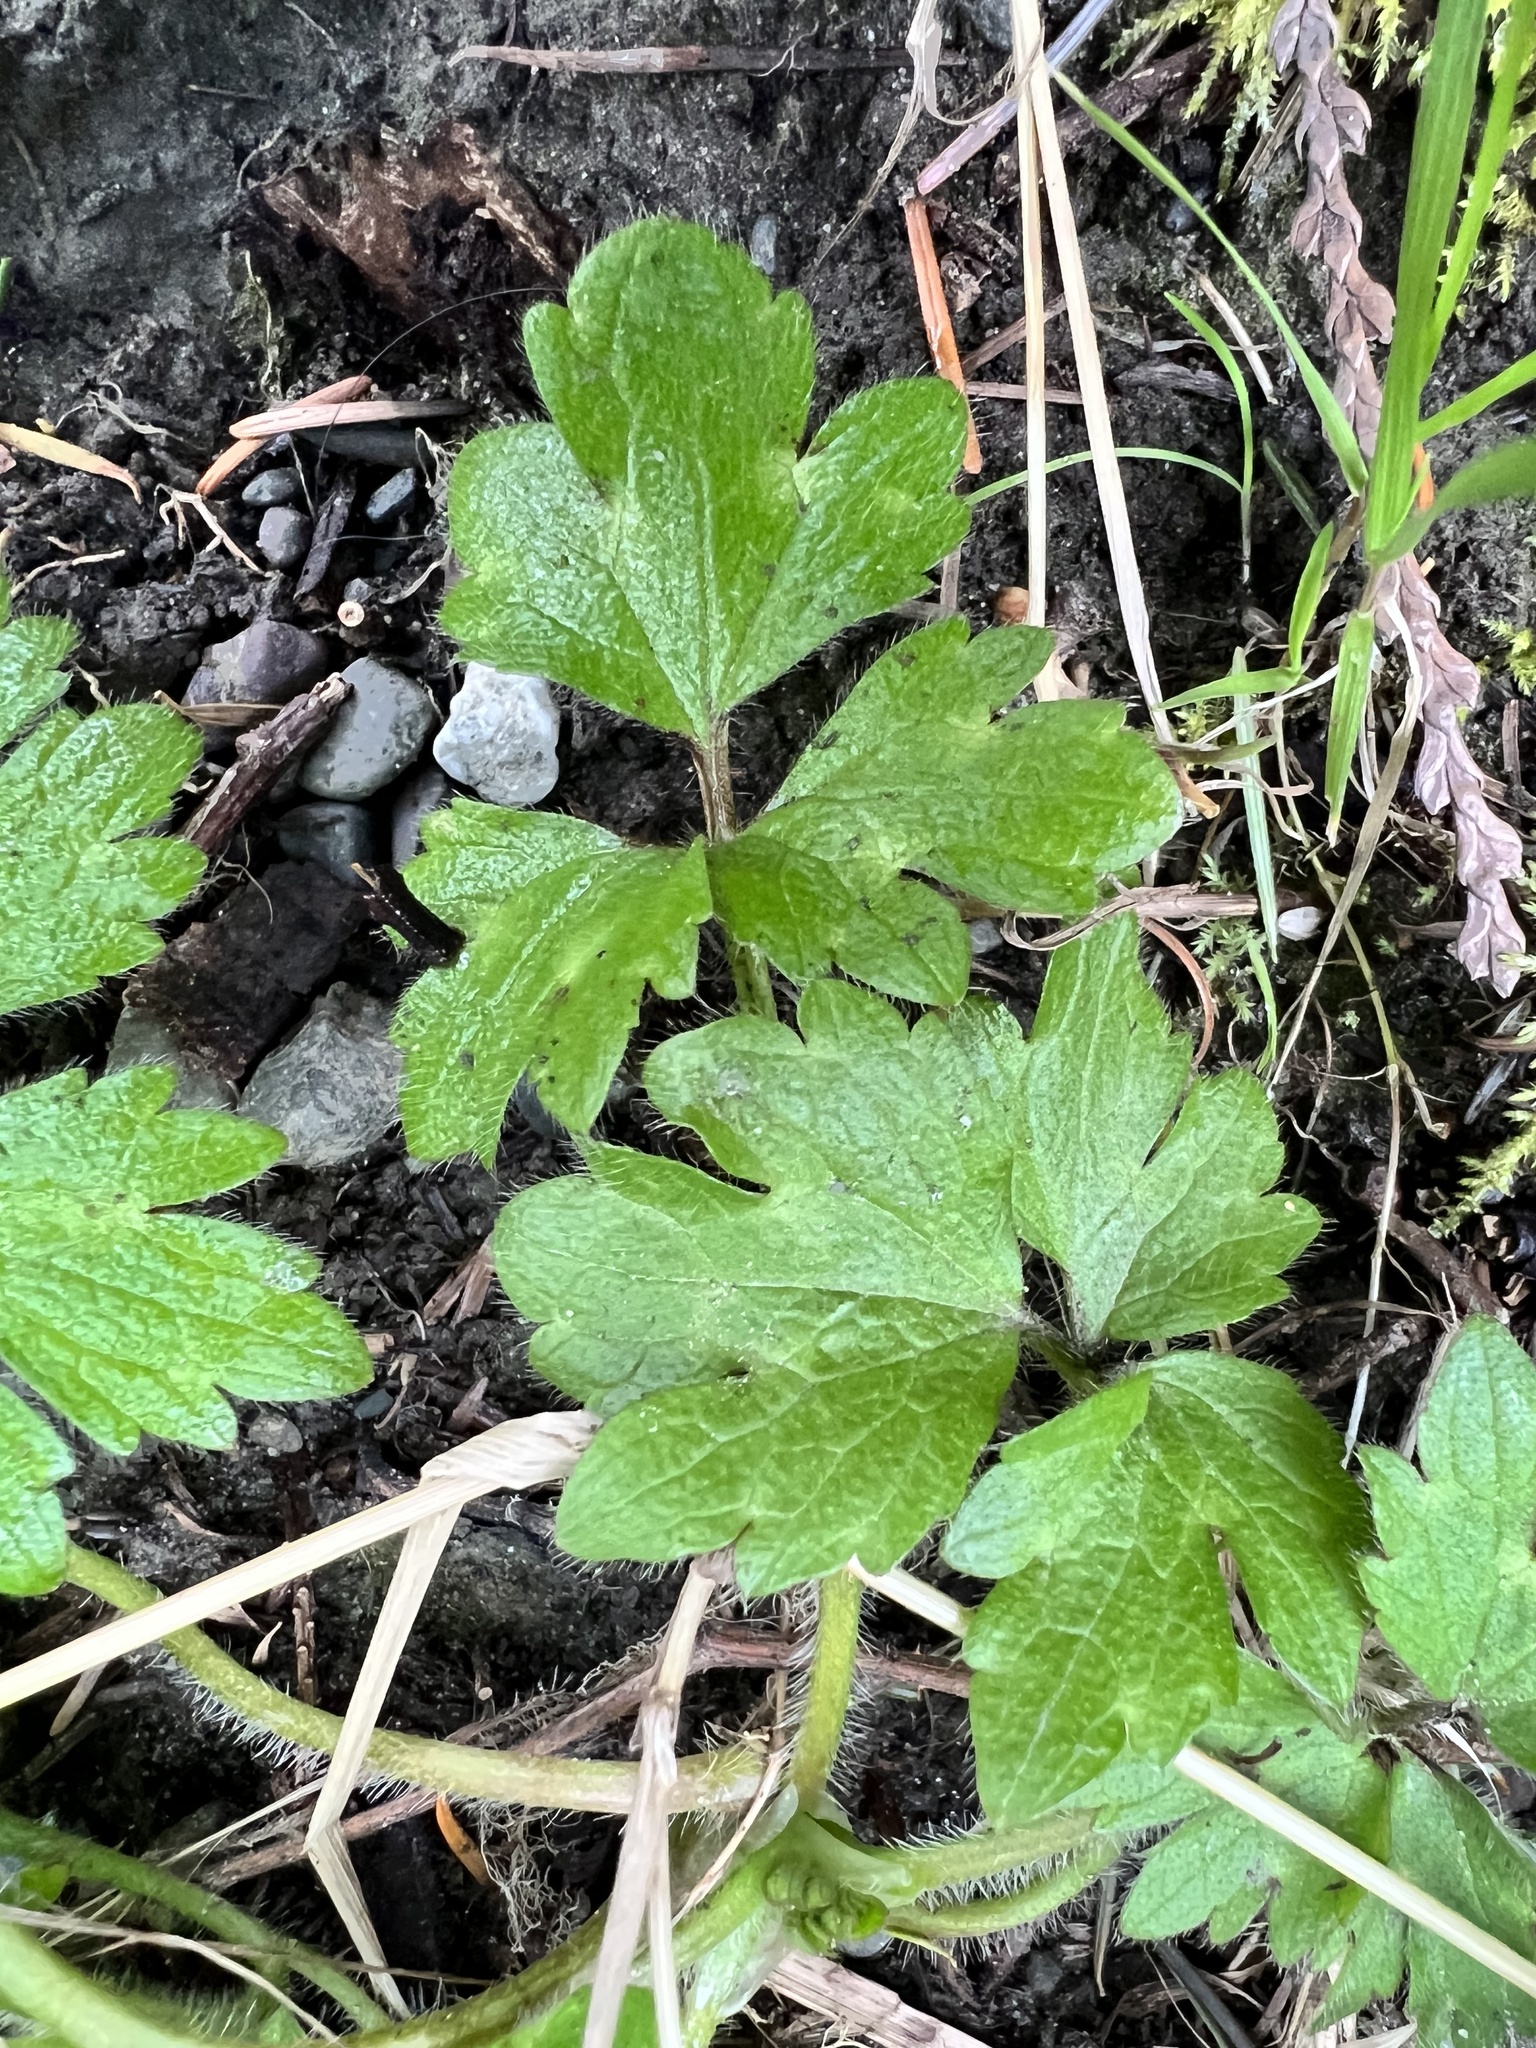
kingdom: Plantae
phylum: Tracheophyta
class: Magnoliopsida
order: Ranunculales
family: Ranunculaceae
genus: Ranunculus
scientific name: Ranunculus repens
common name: Creeping buttercup
